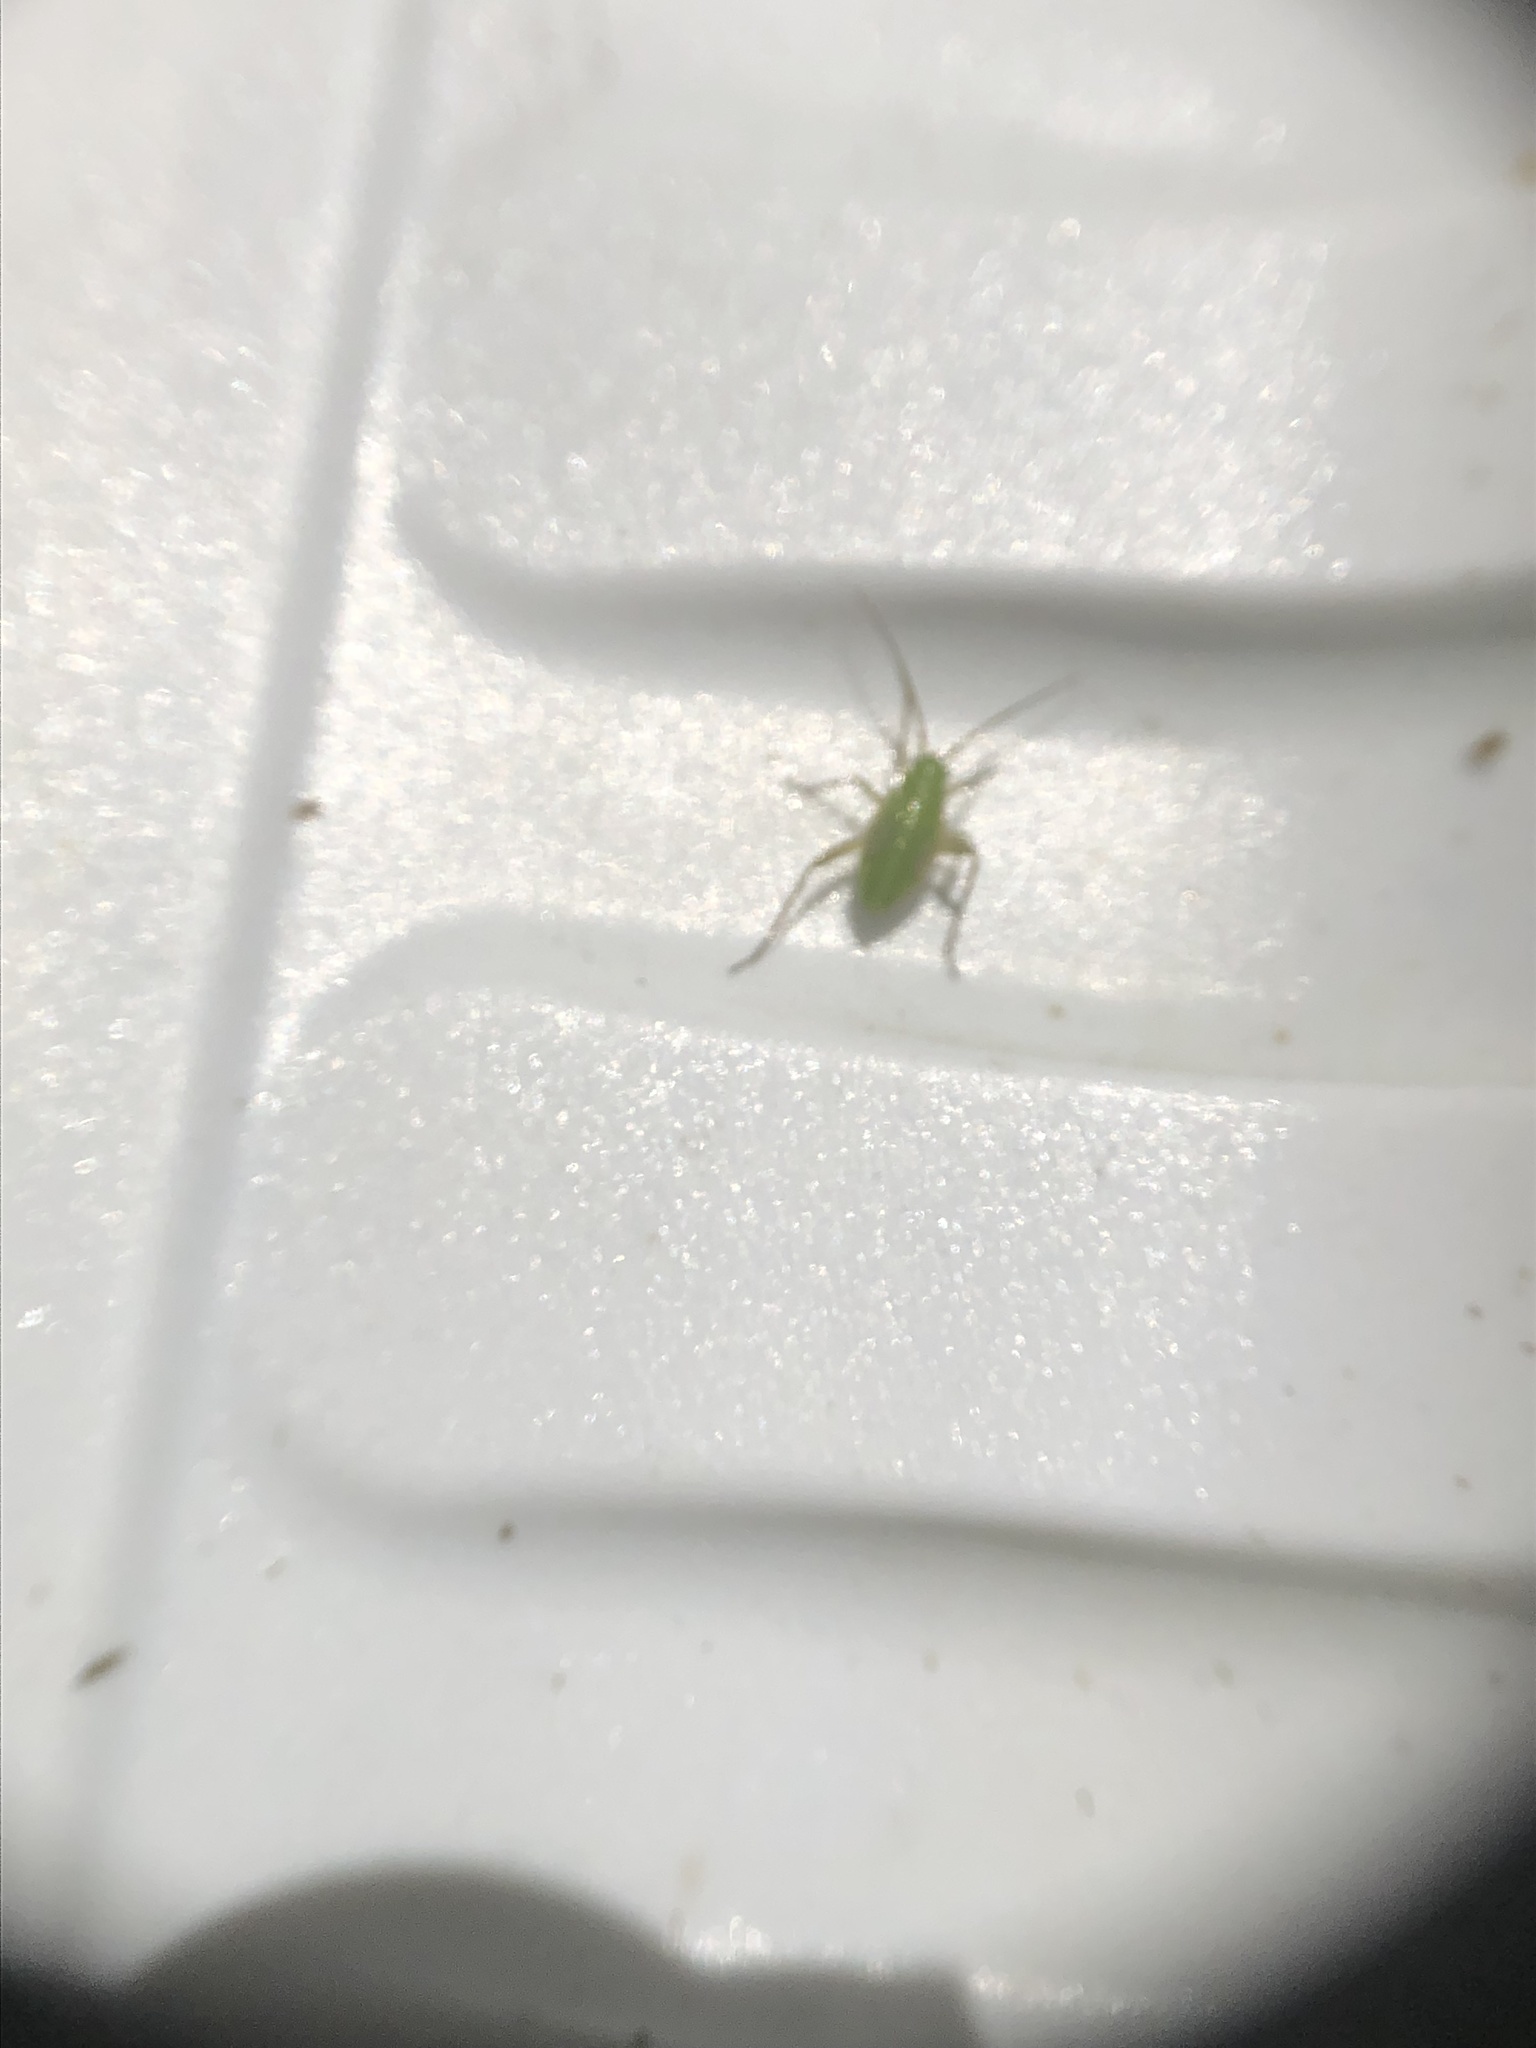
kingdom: Animalia
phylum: Arthropoda
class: Insecta
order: Hemiptera
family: Miridae
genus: Closterotomus
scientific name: Closterotomus norvegicus
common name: Plant bug
